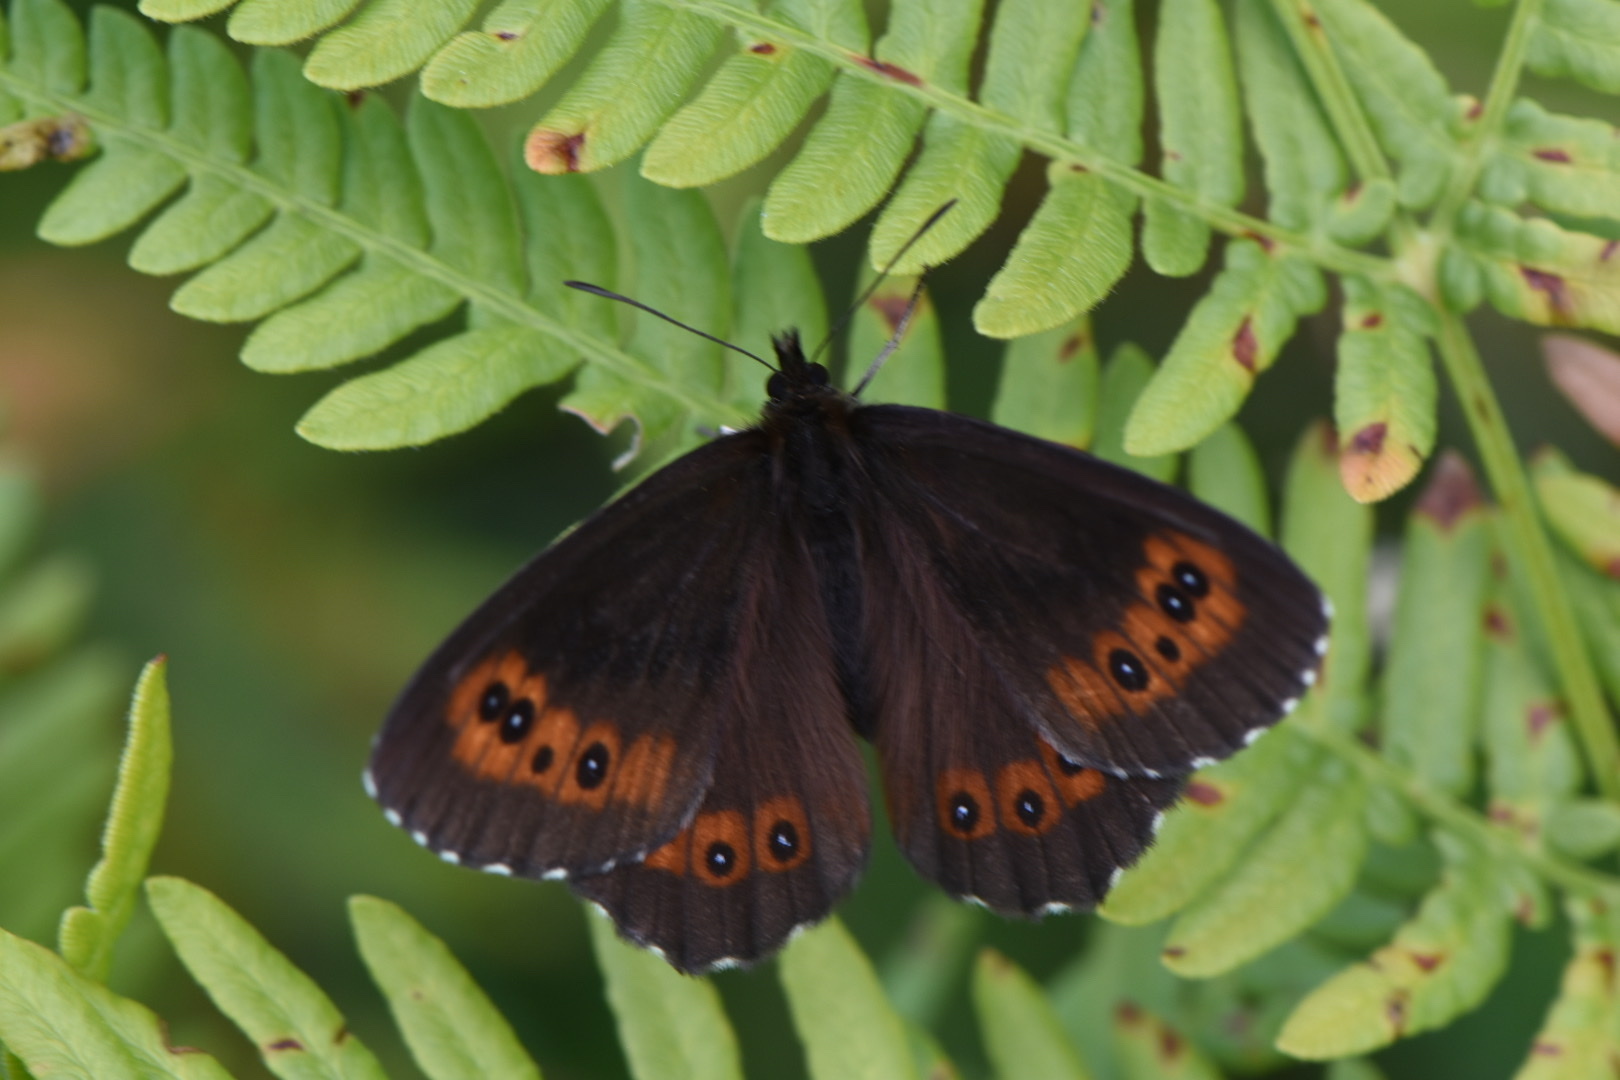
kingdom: Animalia
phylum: Arthropoda
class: Insecta
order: Lepidoptera
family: Nymphalidae
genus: Erebia
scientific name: Erebia ligea
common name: Arran brown
